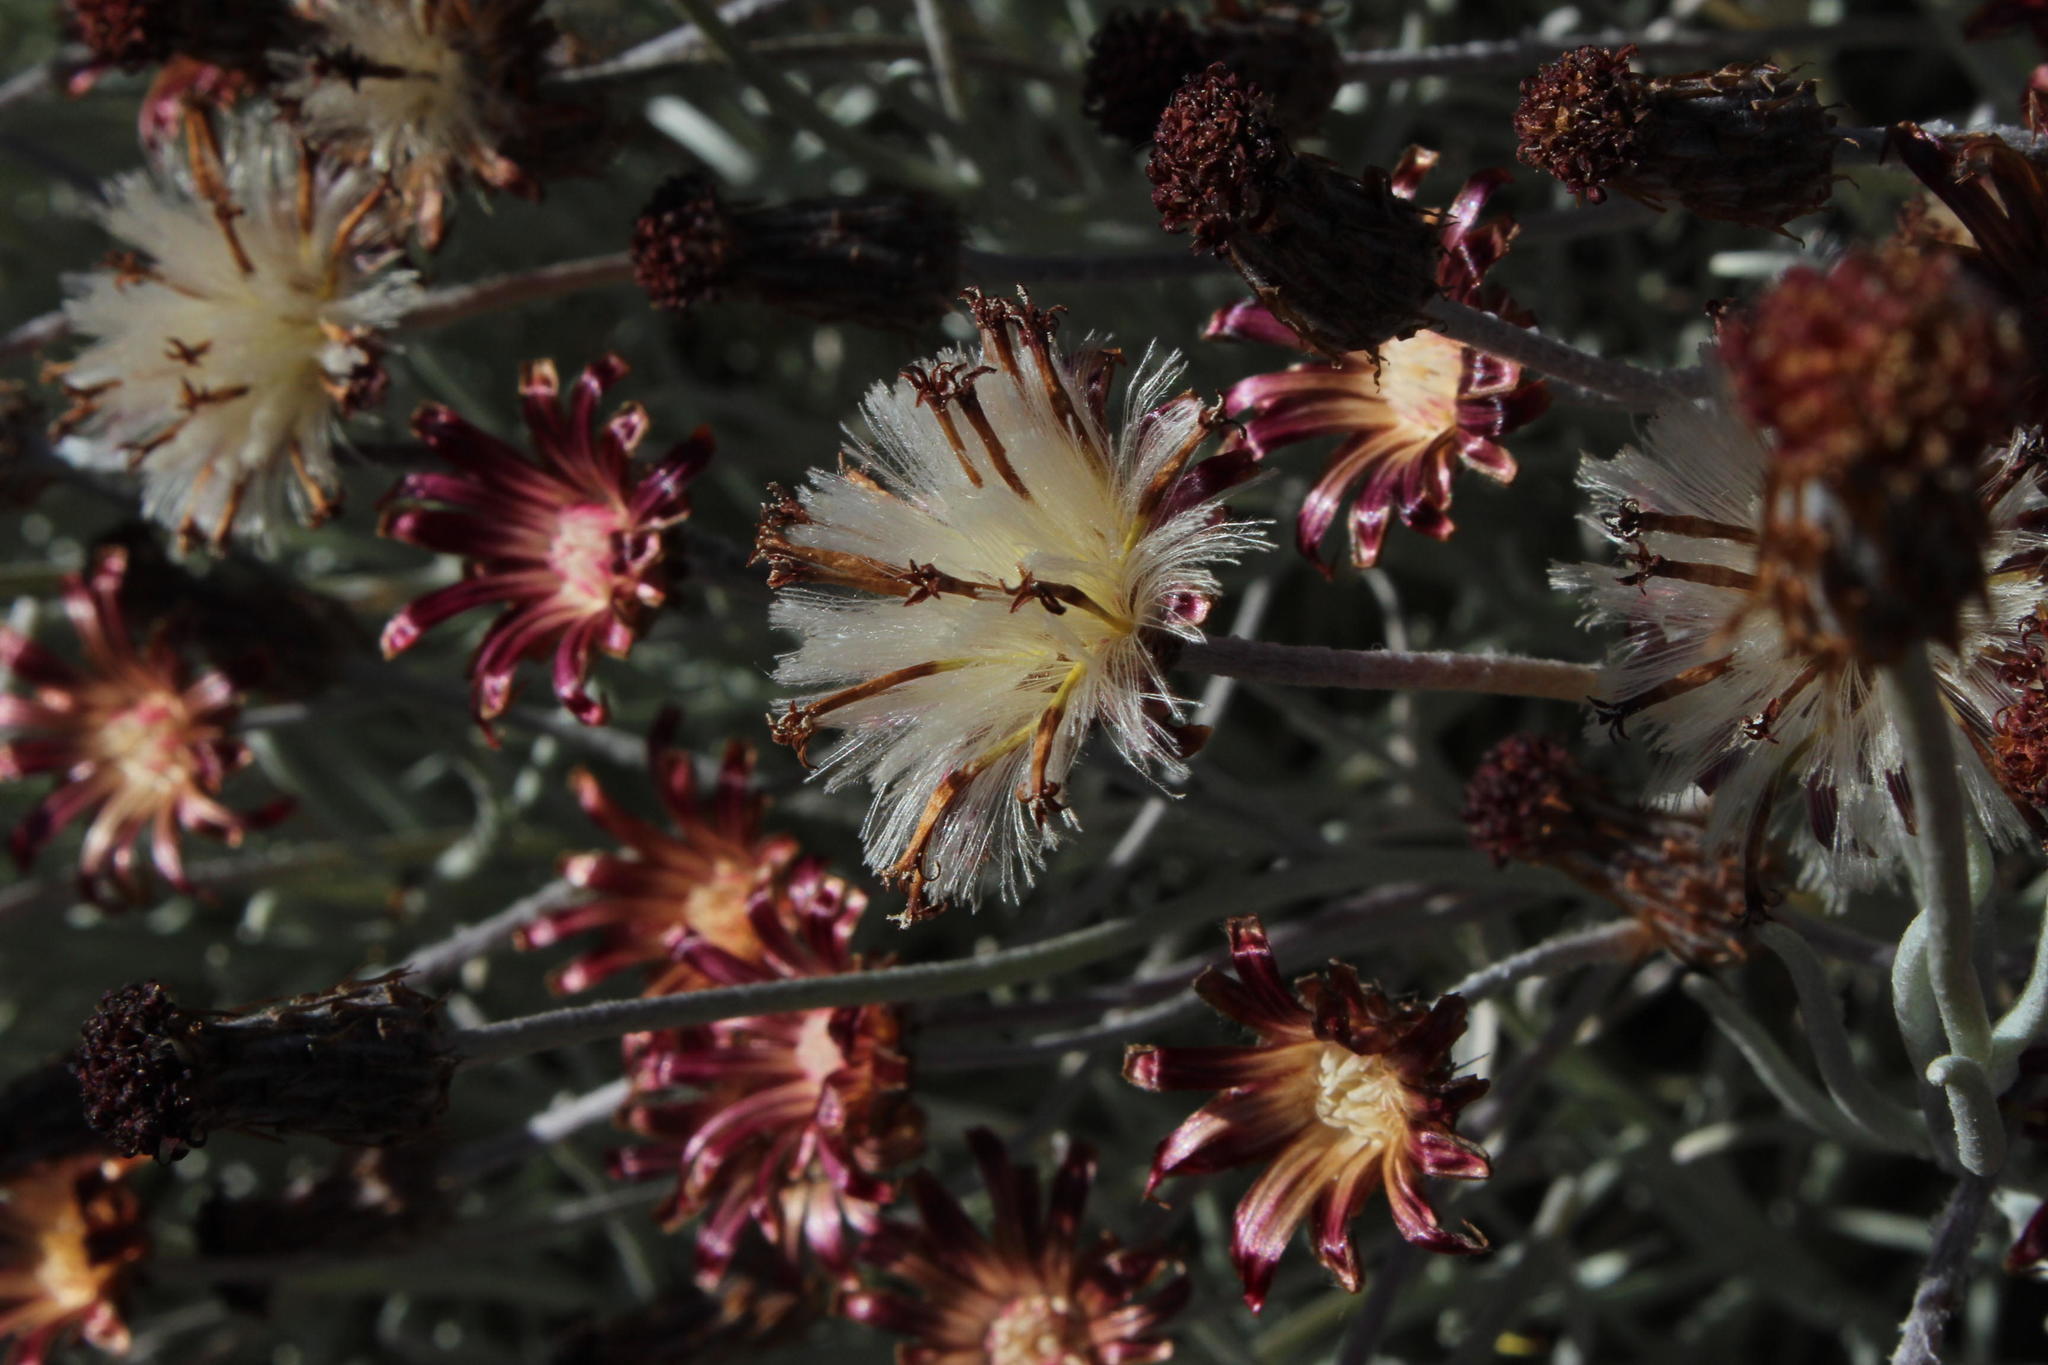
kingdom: Plantae
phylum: Tracheophyta
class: Magnoliopsida
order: Asterales
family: Asteraceae
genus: Syncarpha
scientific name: Syncarpha gnaphaloides
